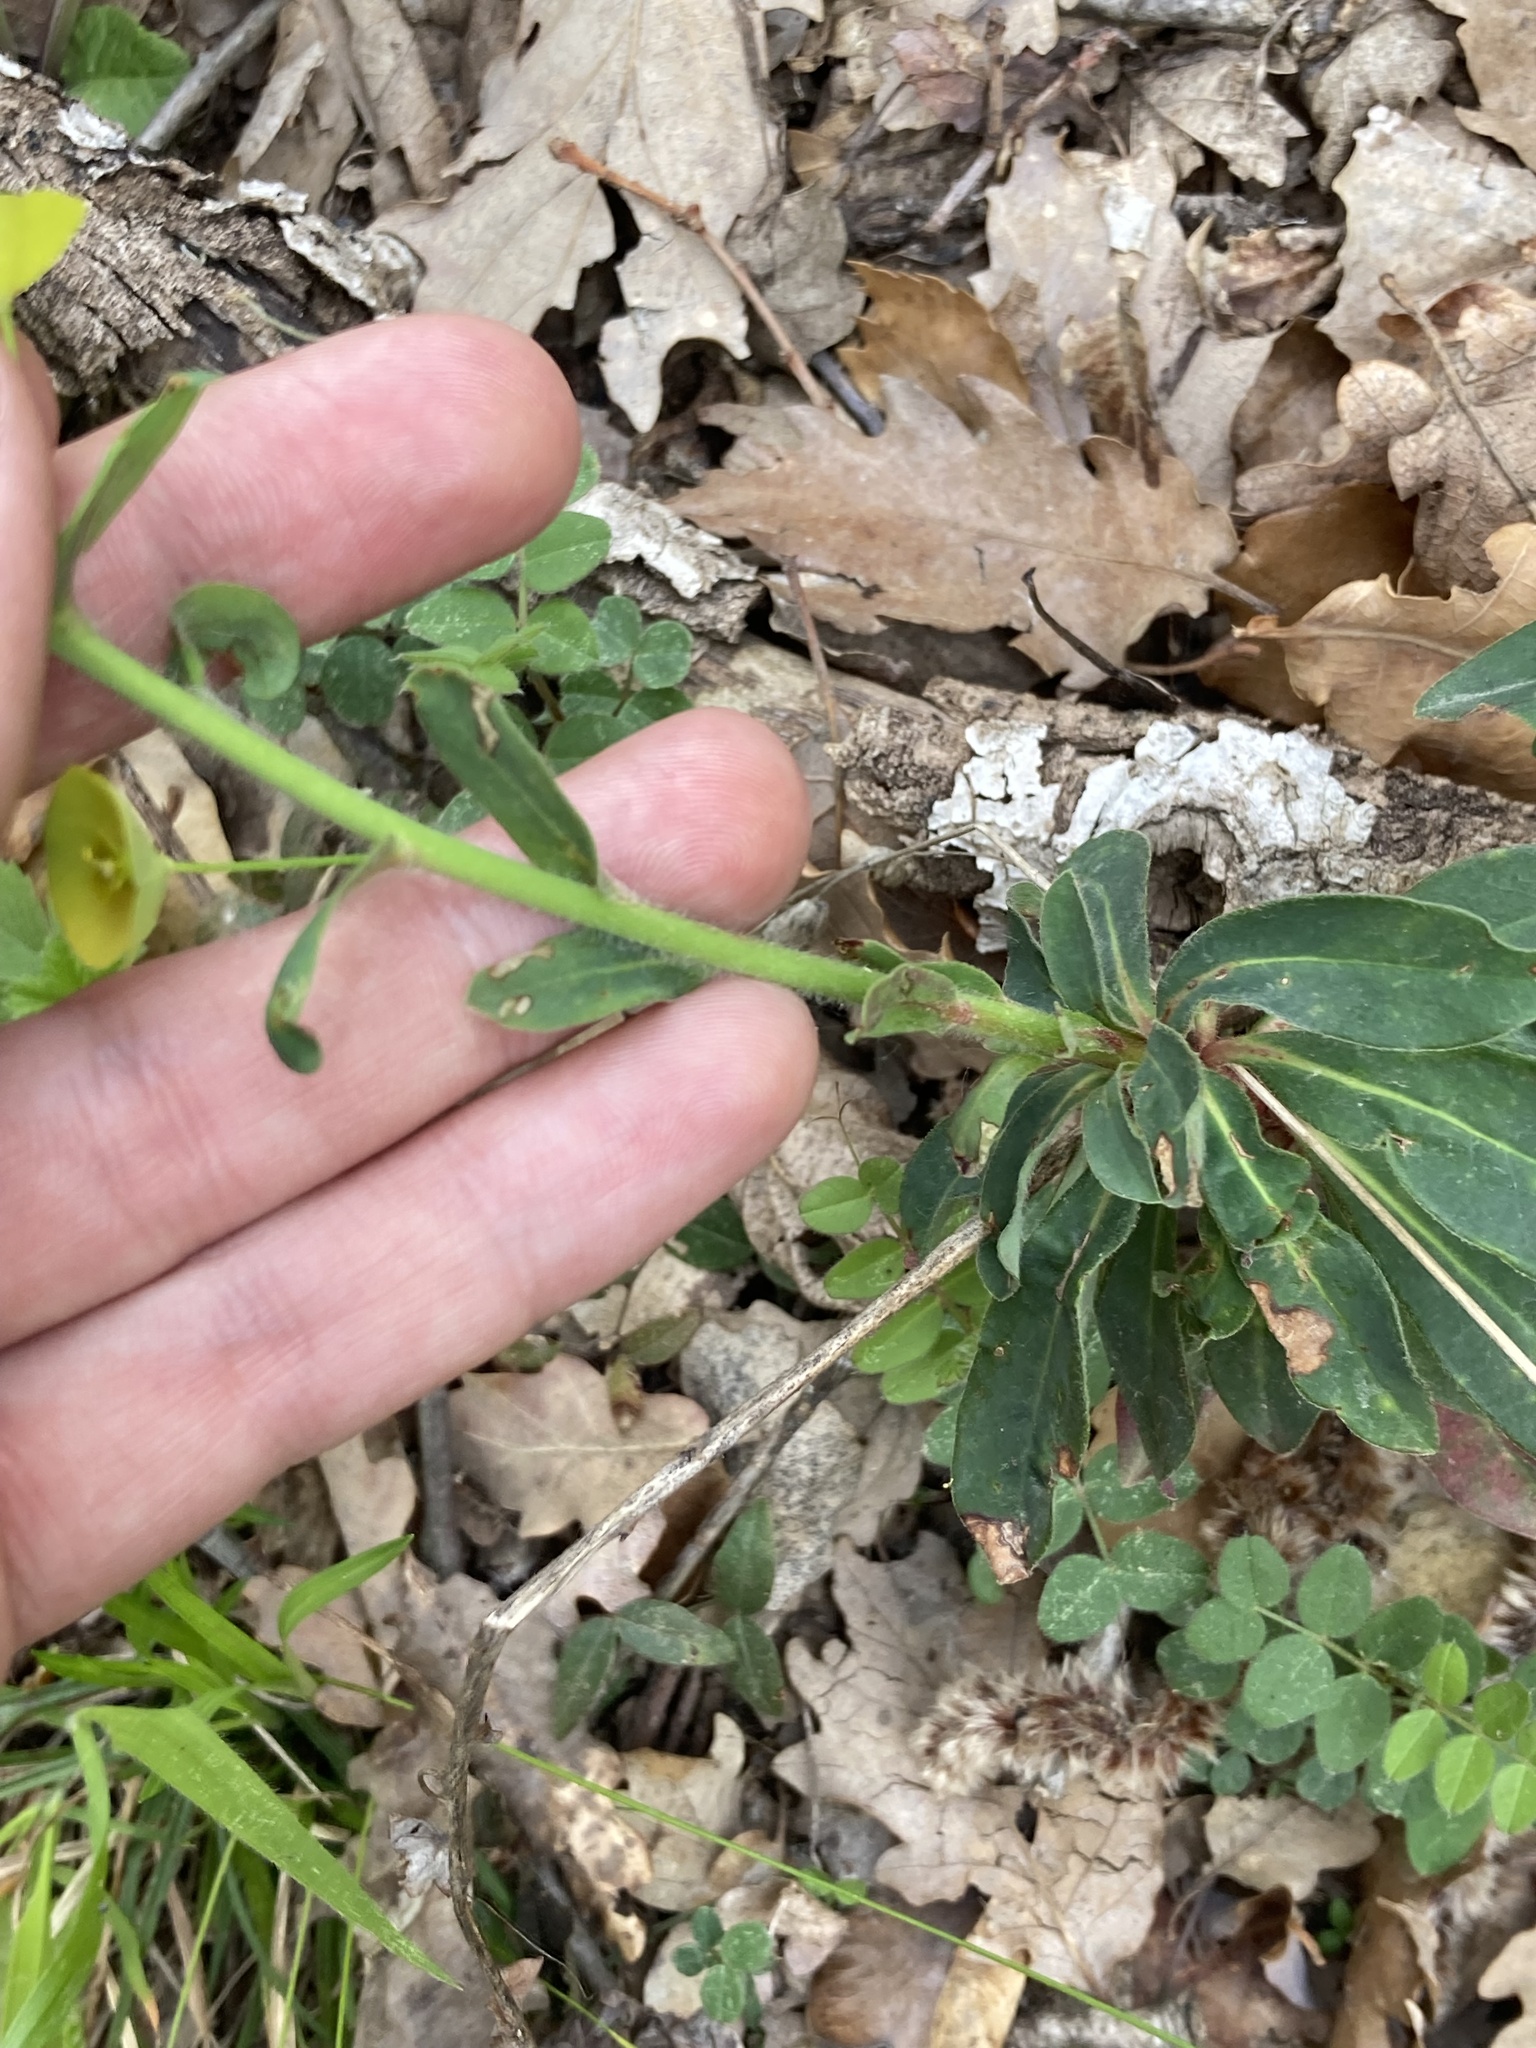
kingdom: Plantae
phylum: Tracheophyta
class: Magnoliopsida
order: Malpighiales
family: Euphorbiaceae
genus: Euphorbia
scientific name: Euphorbia amygdaloides
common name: Wood spurge
